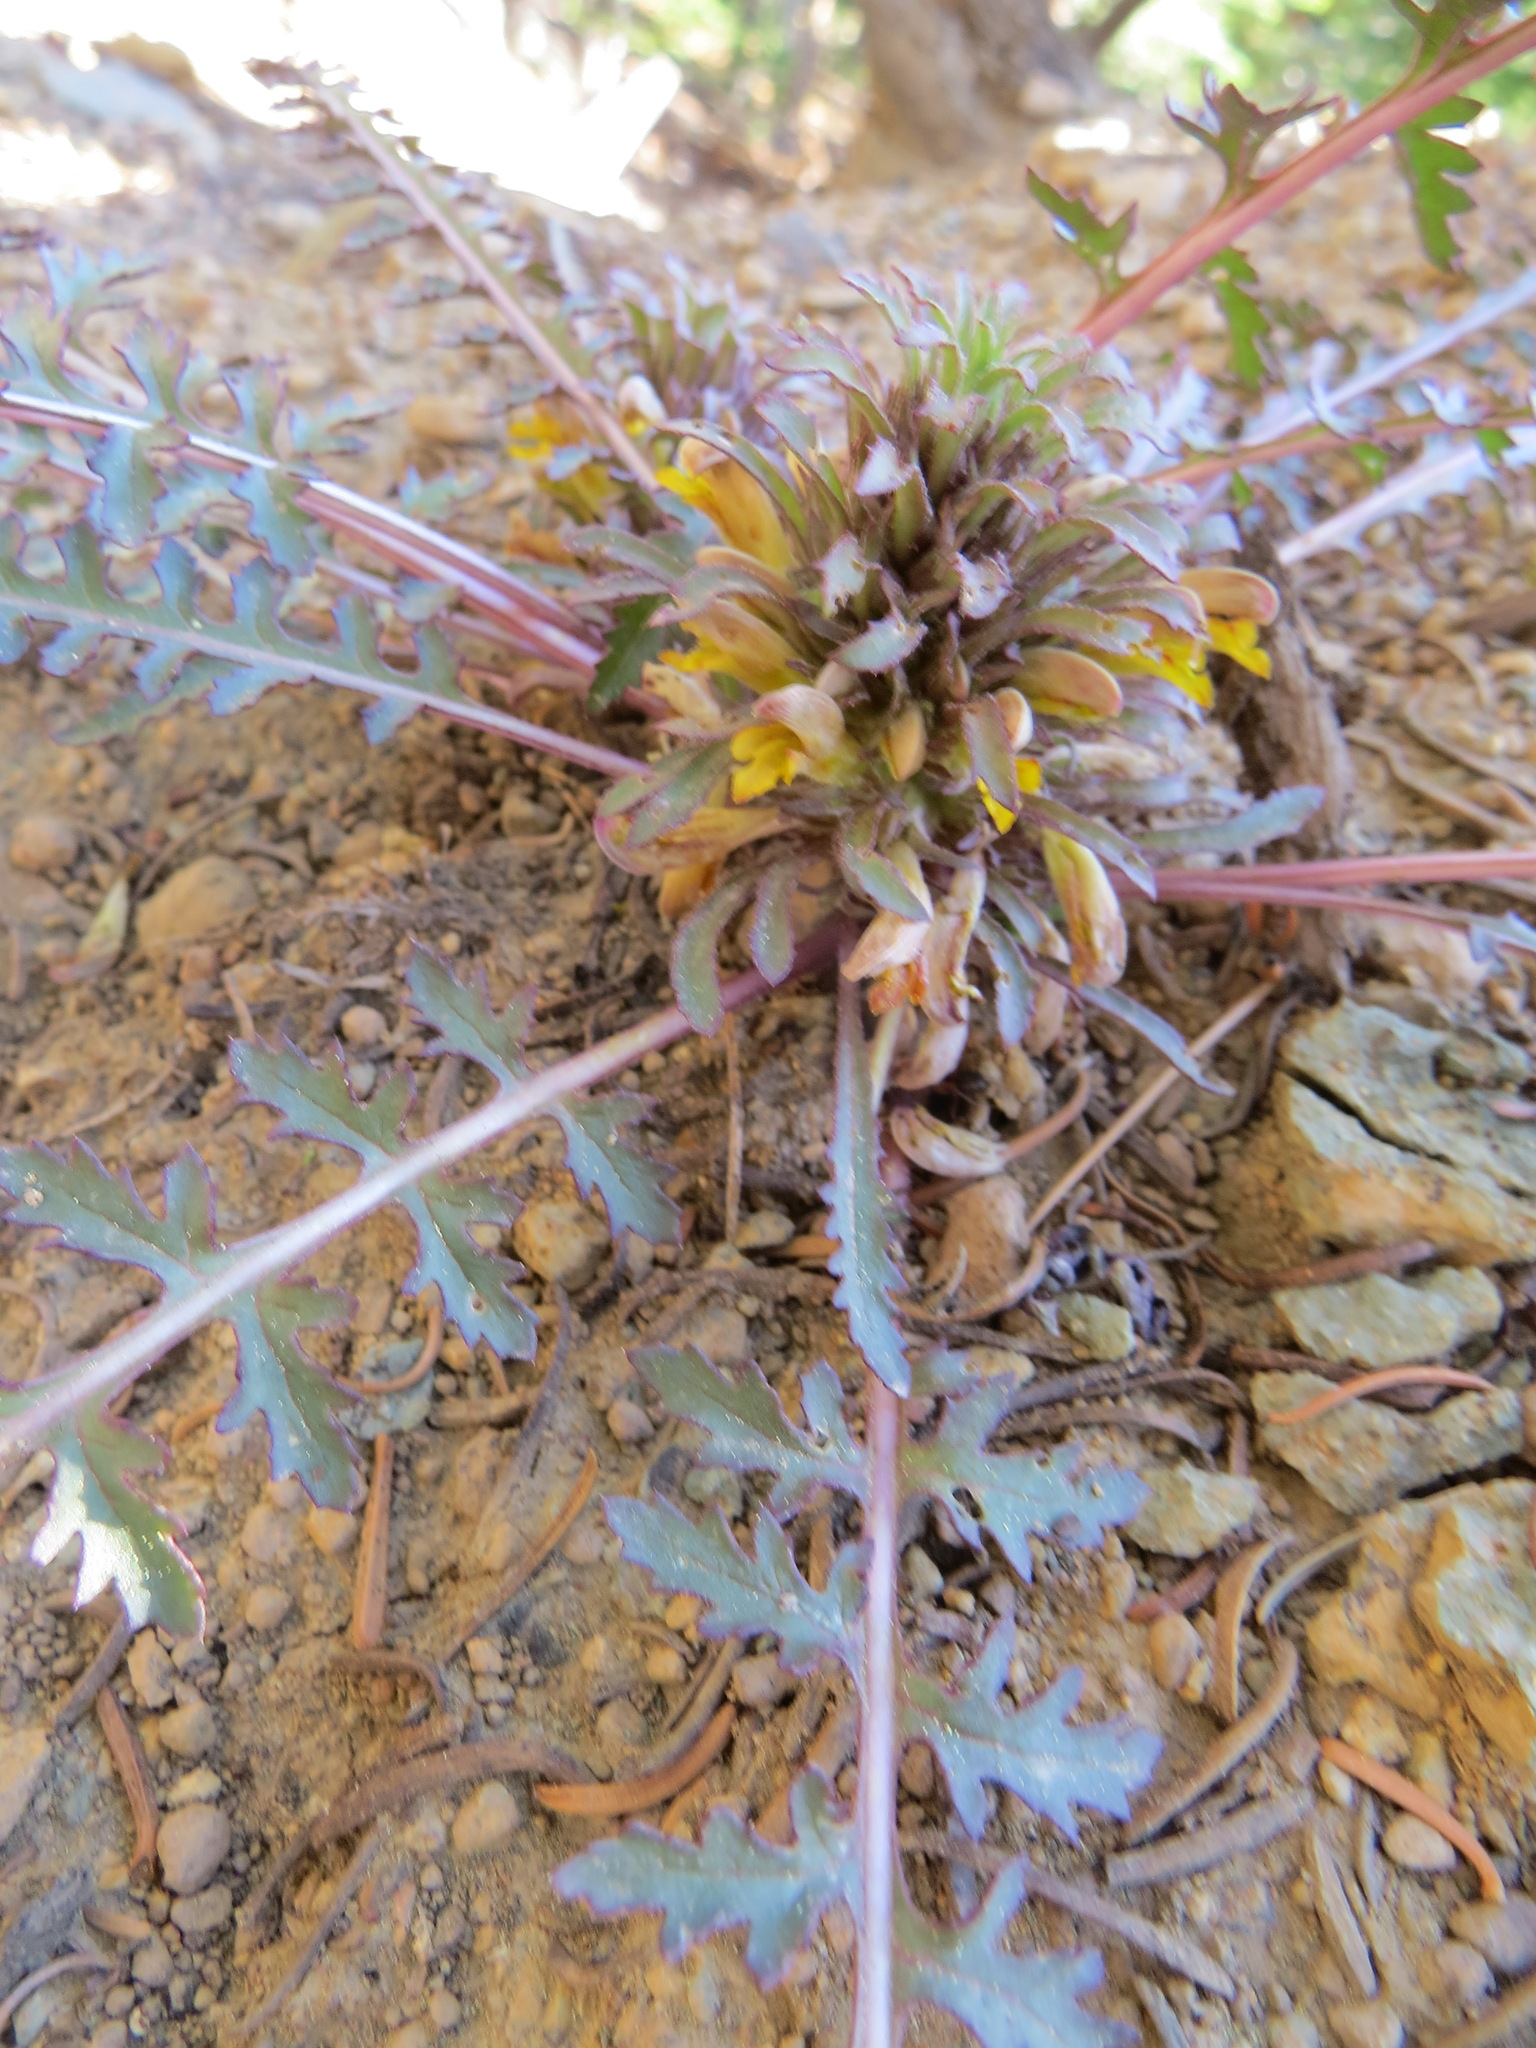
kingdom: Plantae
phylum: Tracheophyta
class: Magnoliopsida
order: Lamiales
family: Orobanchaceae
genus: Pedicularis
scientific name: Pedicularis semibarbata
